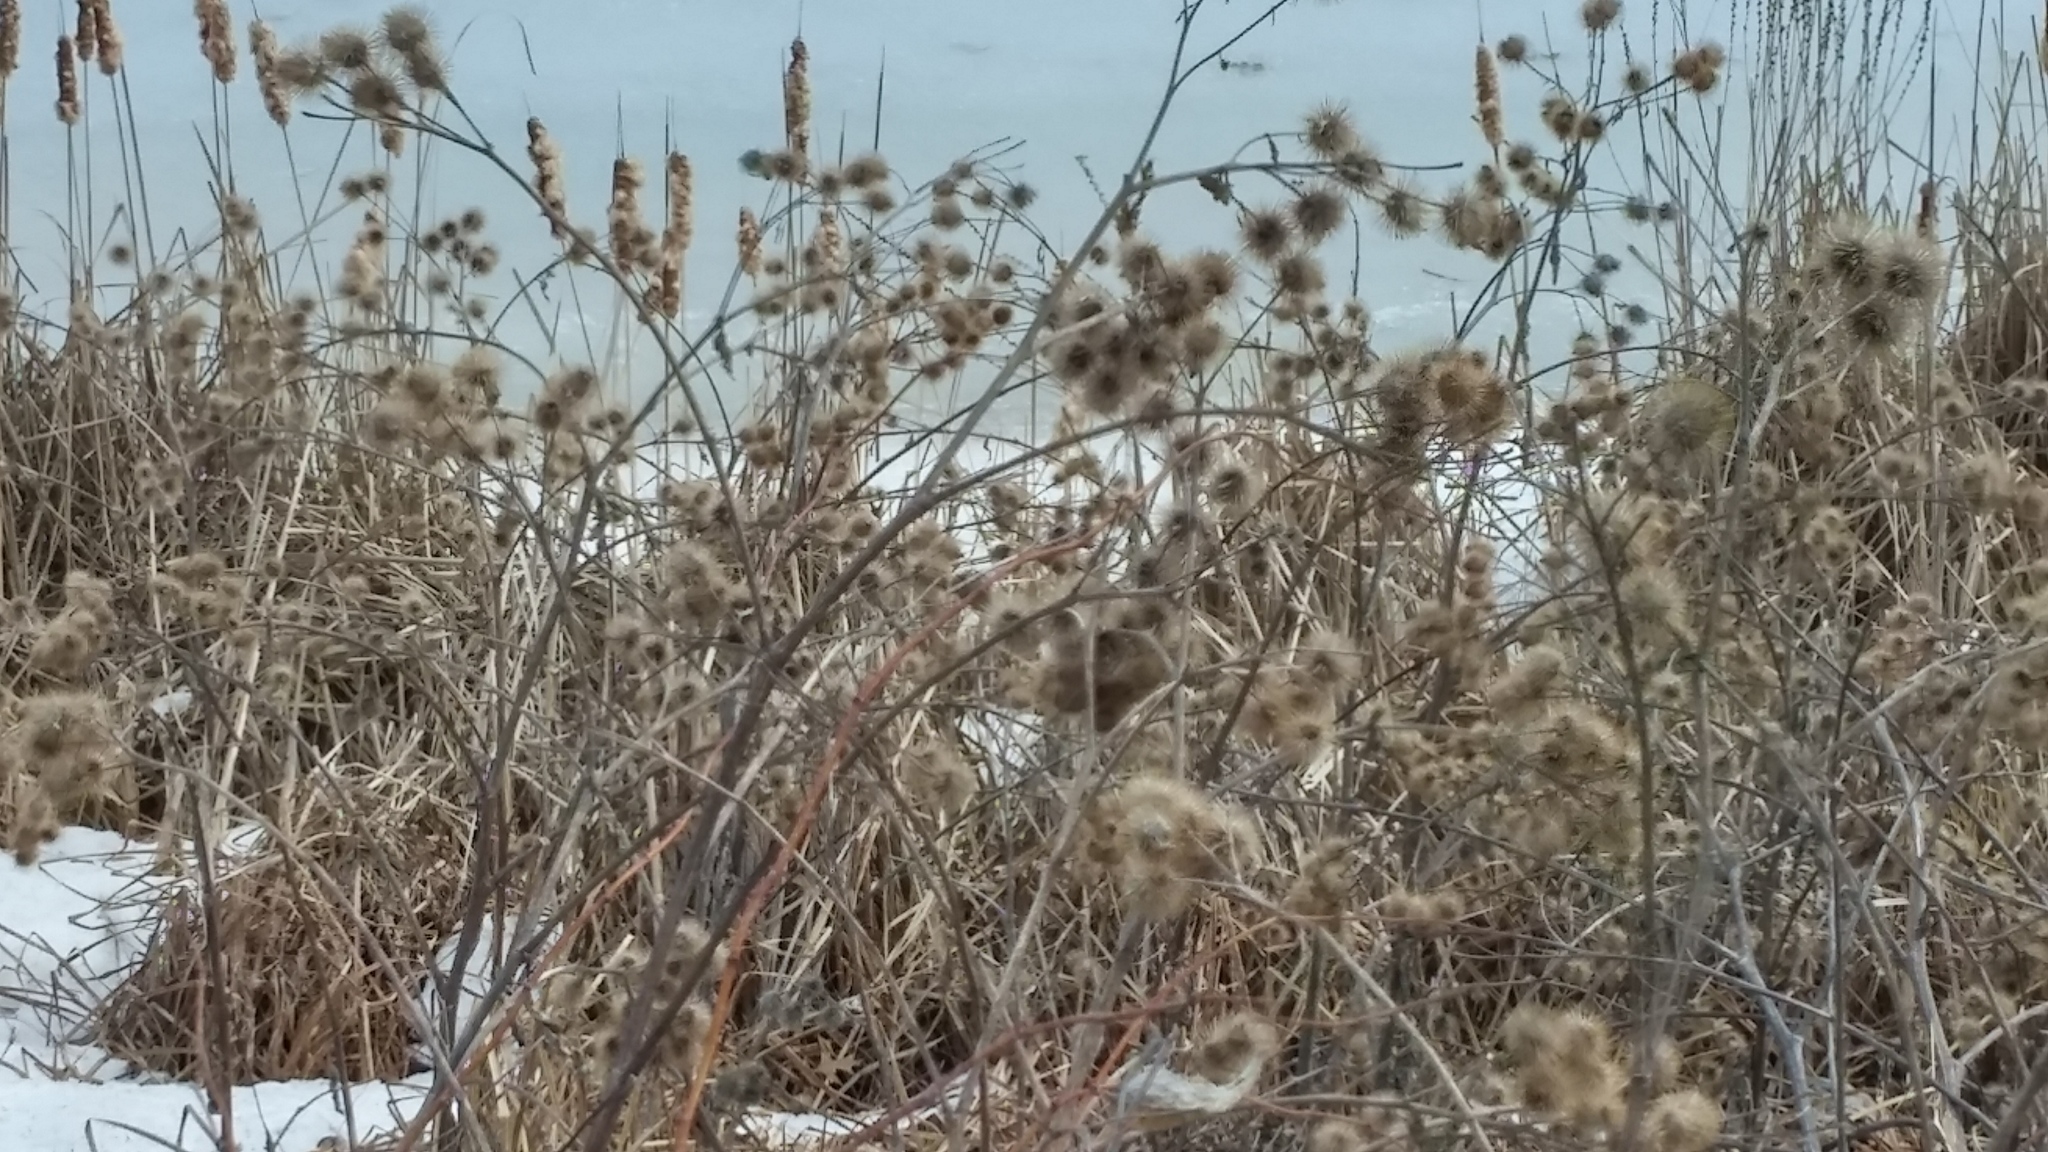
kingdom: Plantae
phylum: Tracheophyta
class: Magnoliopsida
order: Asterales
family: Asteraceae
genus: Arctium
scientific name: Arctium lappa
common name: Greater burdock
